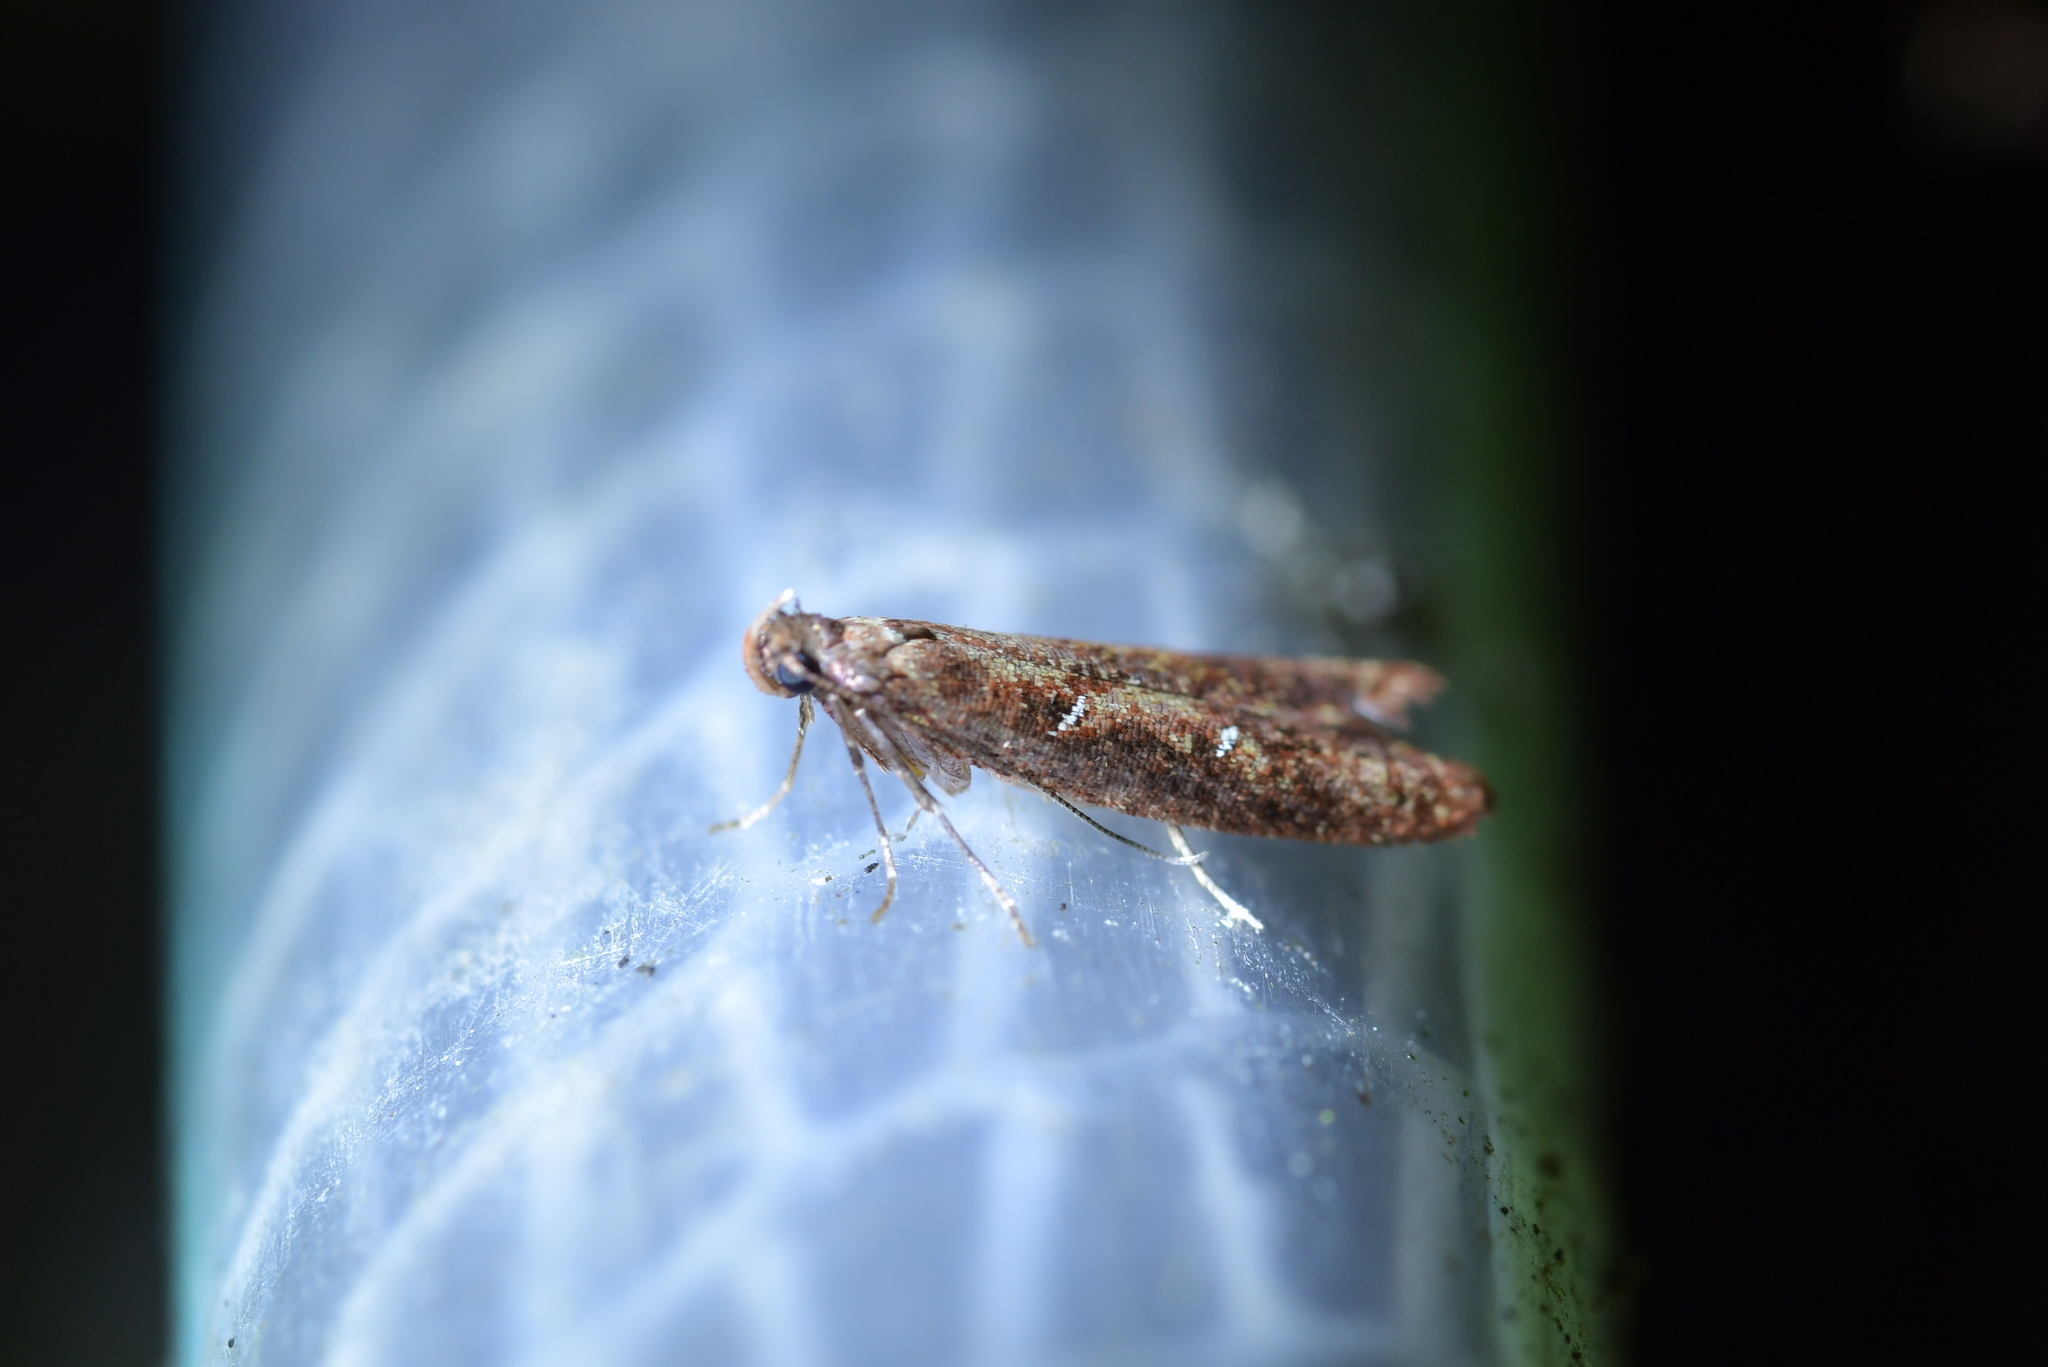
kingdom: Animalia
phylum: Arthropoda
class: Insecta
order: Lepidoptera
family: Plutellidae
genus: Cadmogenes
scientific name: Cadmogenes literata
